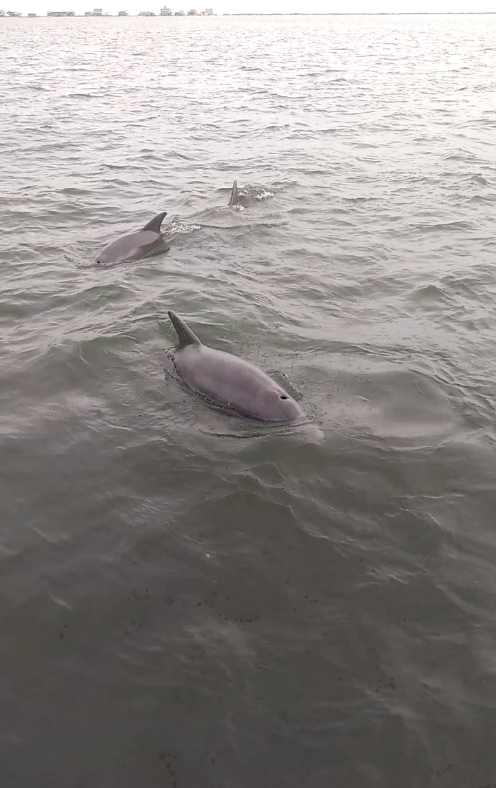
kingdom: Animalia
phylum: Chordata
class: Mammalia
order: Cetacea
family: Delphinidae
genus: Tursiops
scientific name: Tursiops truncatus
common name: Bottlenose dolphin
